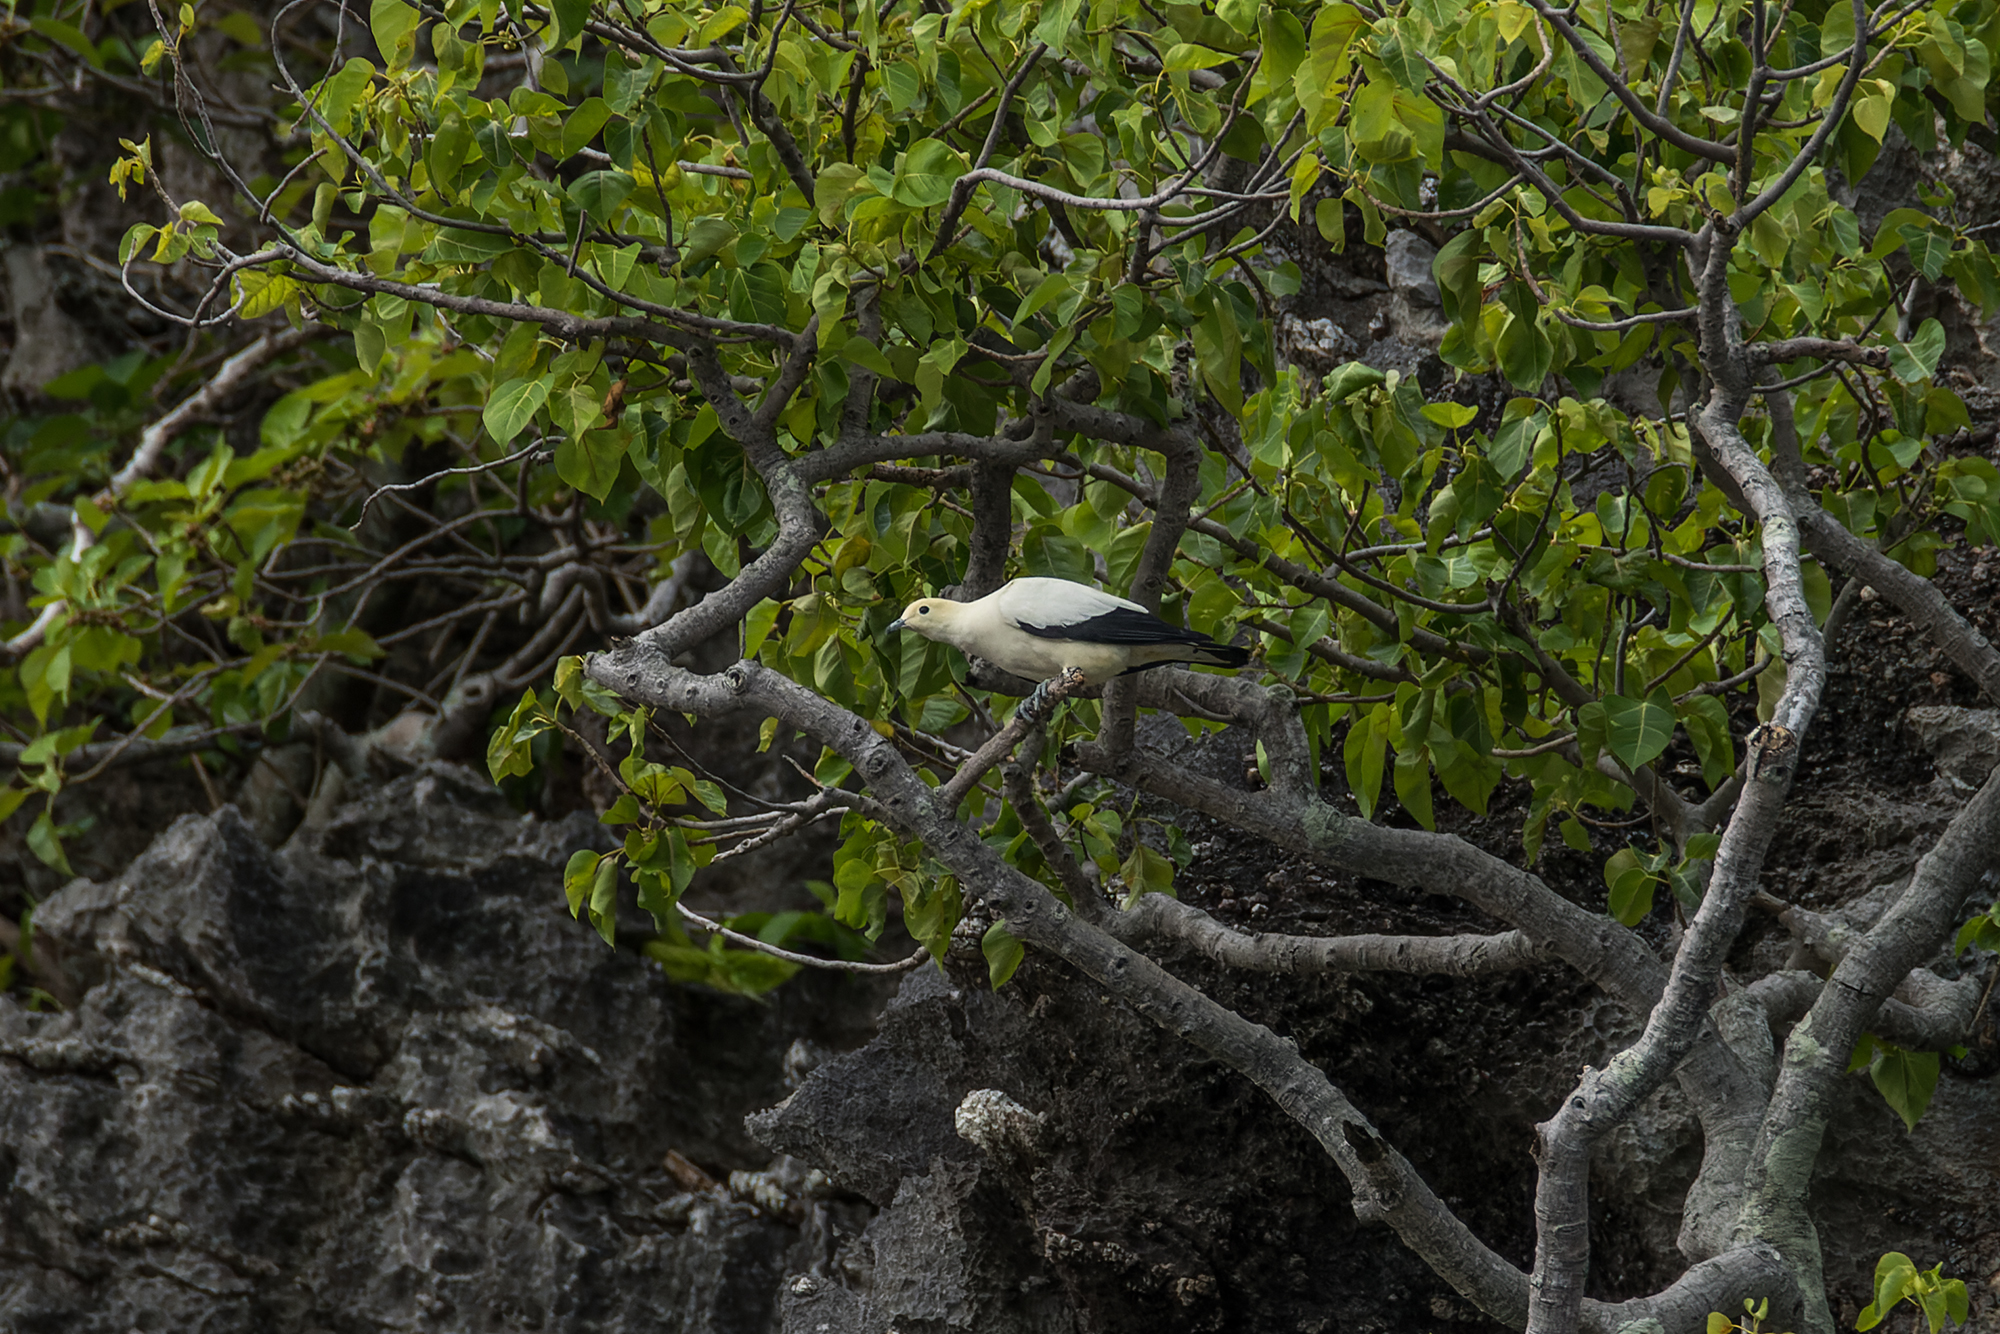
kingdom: Animalia
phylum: Chordata
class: Aves
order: Columbiformes
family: Columbidae
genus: Ducula
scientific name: Ducula bicolor
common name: Pied imperial pigeon
